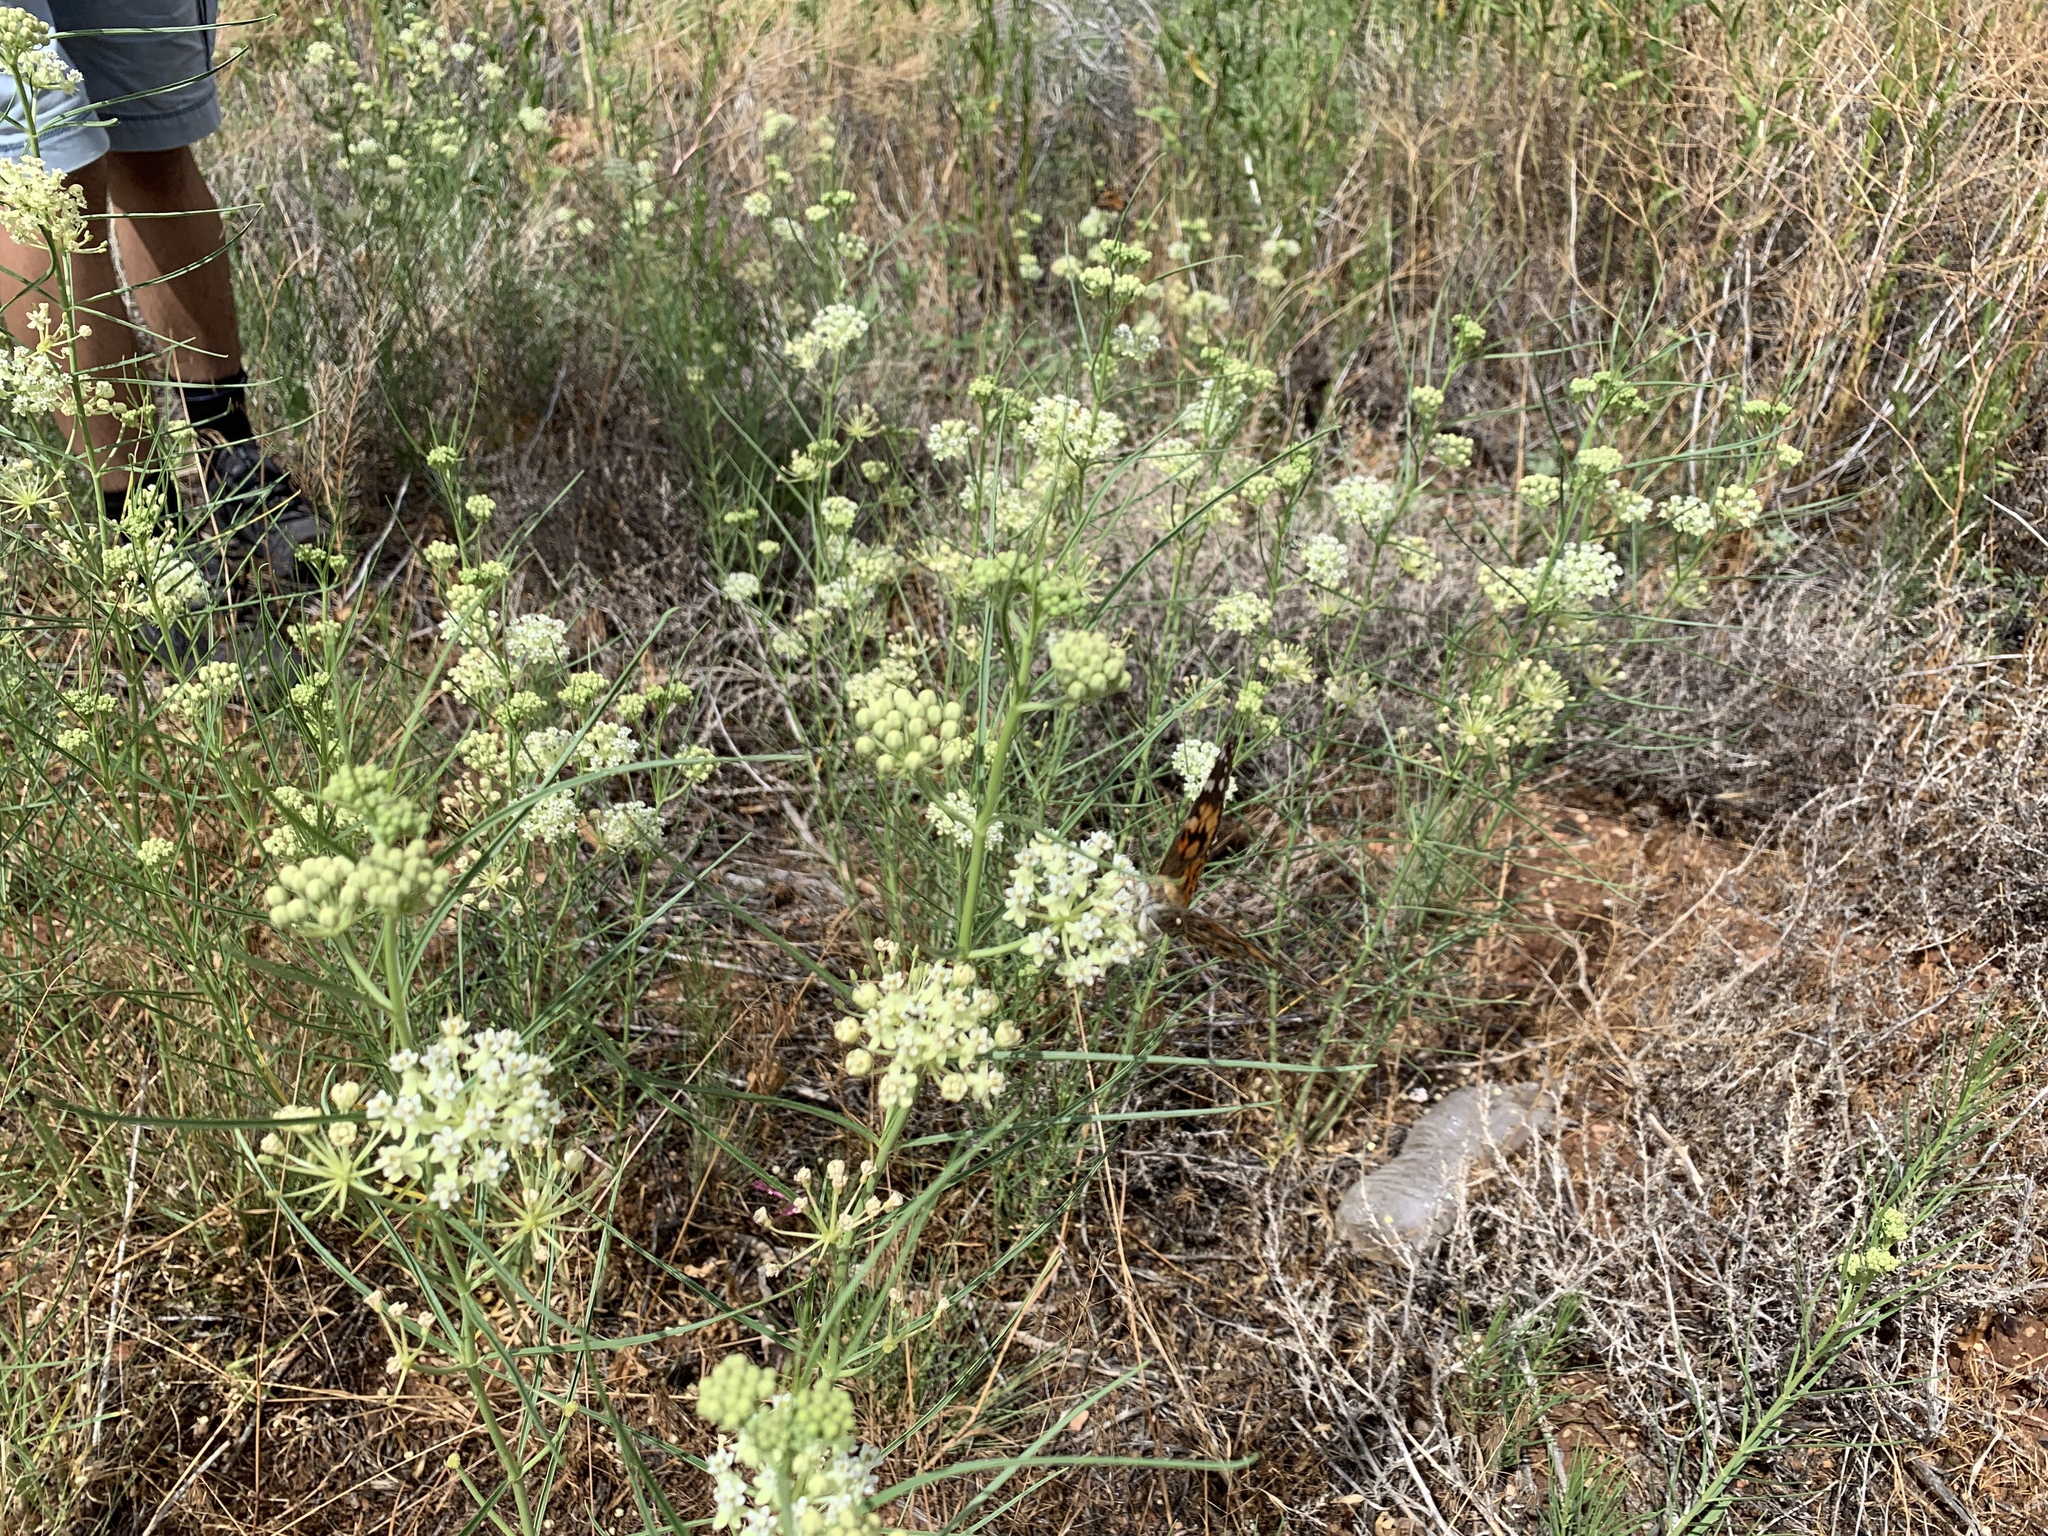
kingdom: Plantae
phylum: Tracheophyta
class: Magnoliopsida
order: Gentianales
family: Apocynaceae
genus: Asclepias
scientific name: Asclepias subverticillata
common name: Horsetail milkweed
